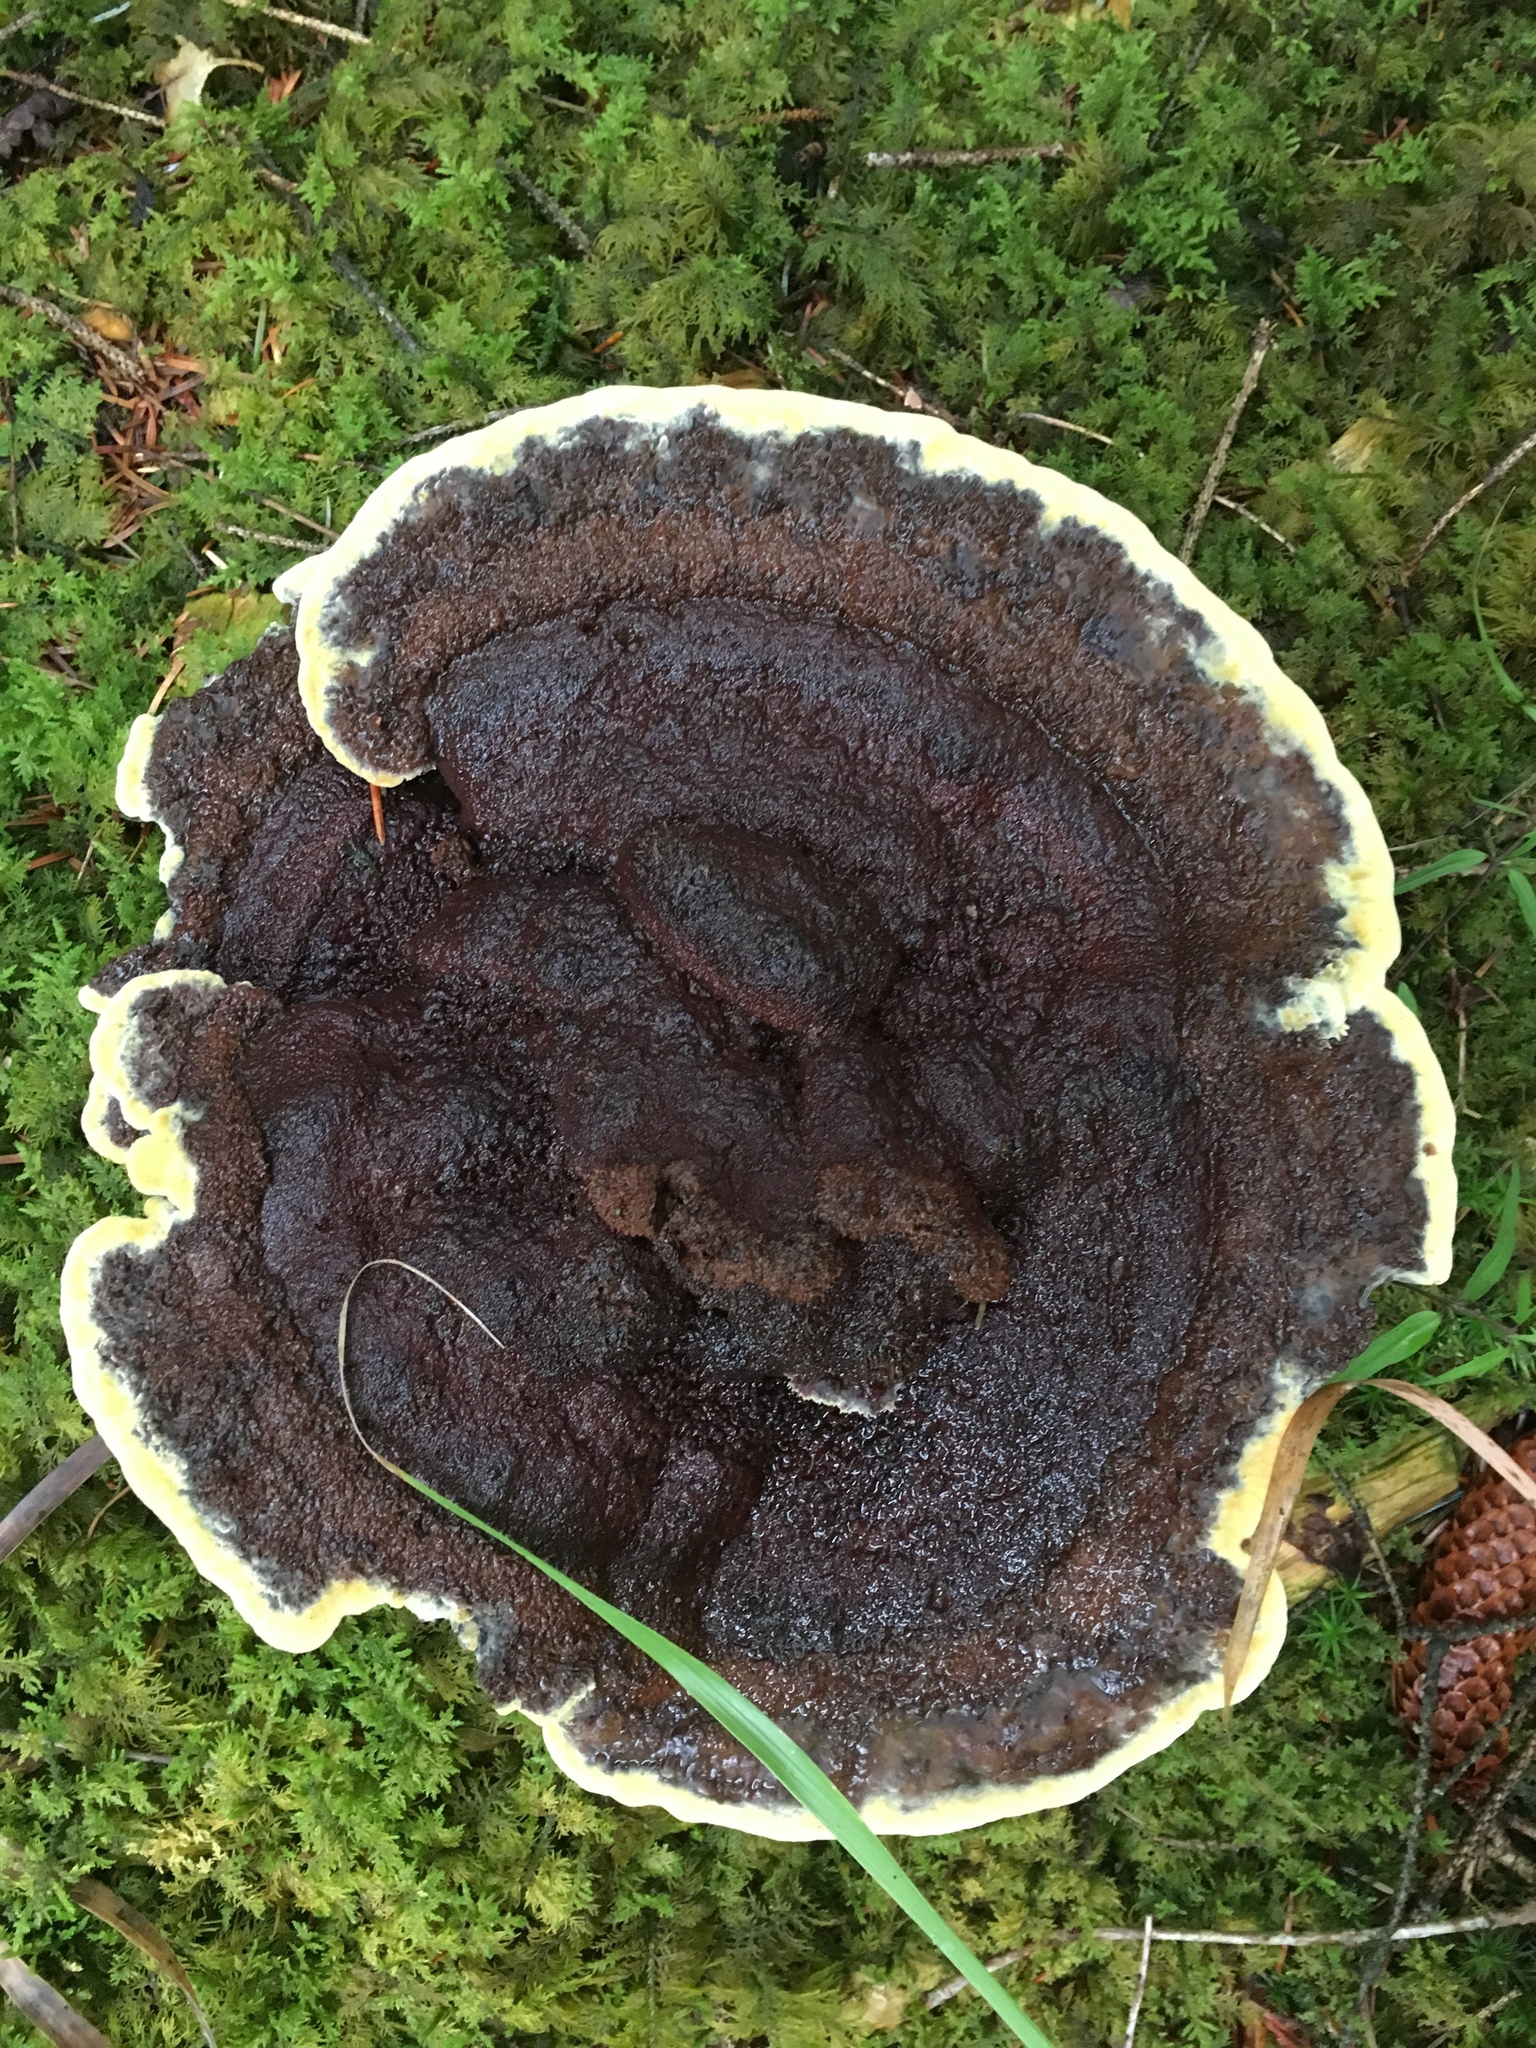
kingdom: Fungi
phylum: Basidiomycota
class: Agaricomycetes
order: Polyporales
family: Laetiporaceae
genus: Phaeolus
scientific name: Phaeolus schweinitzii
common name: Dyer's mazegill
